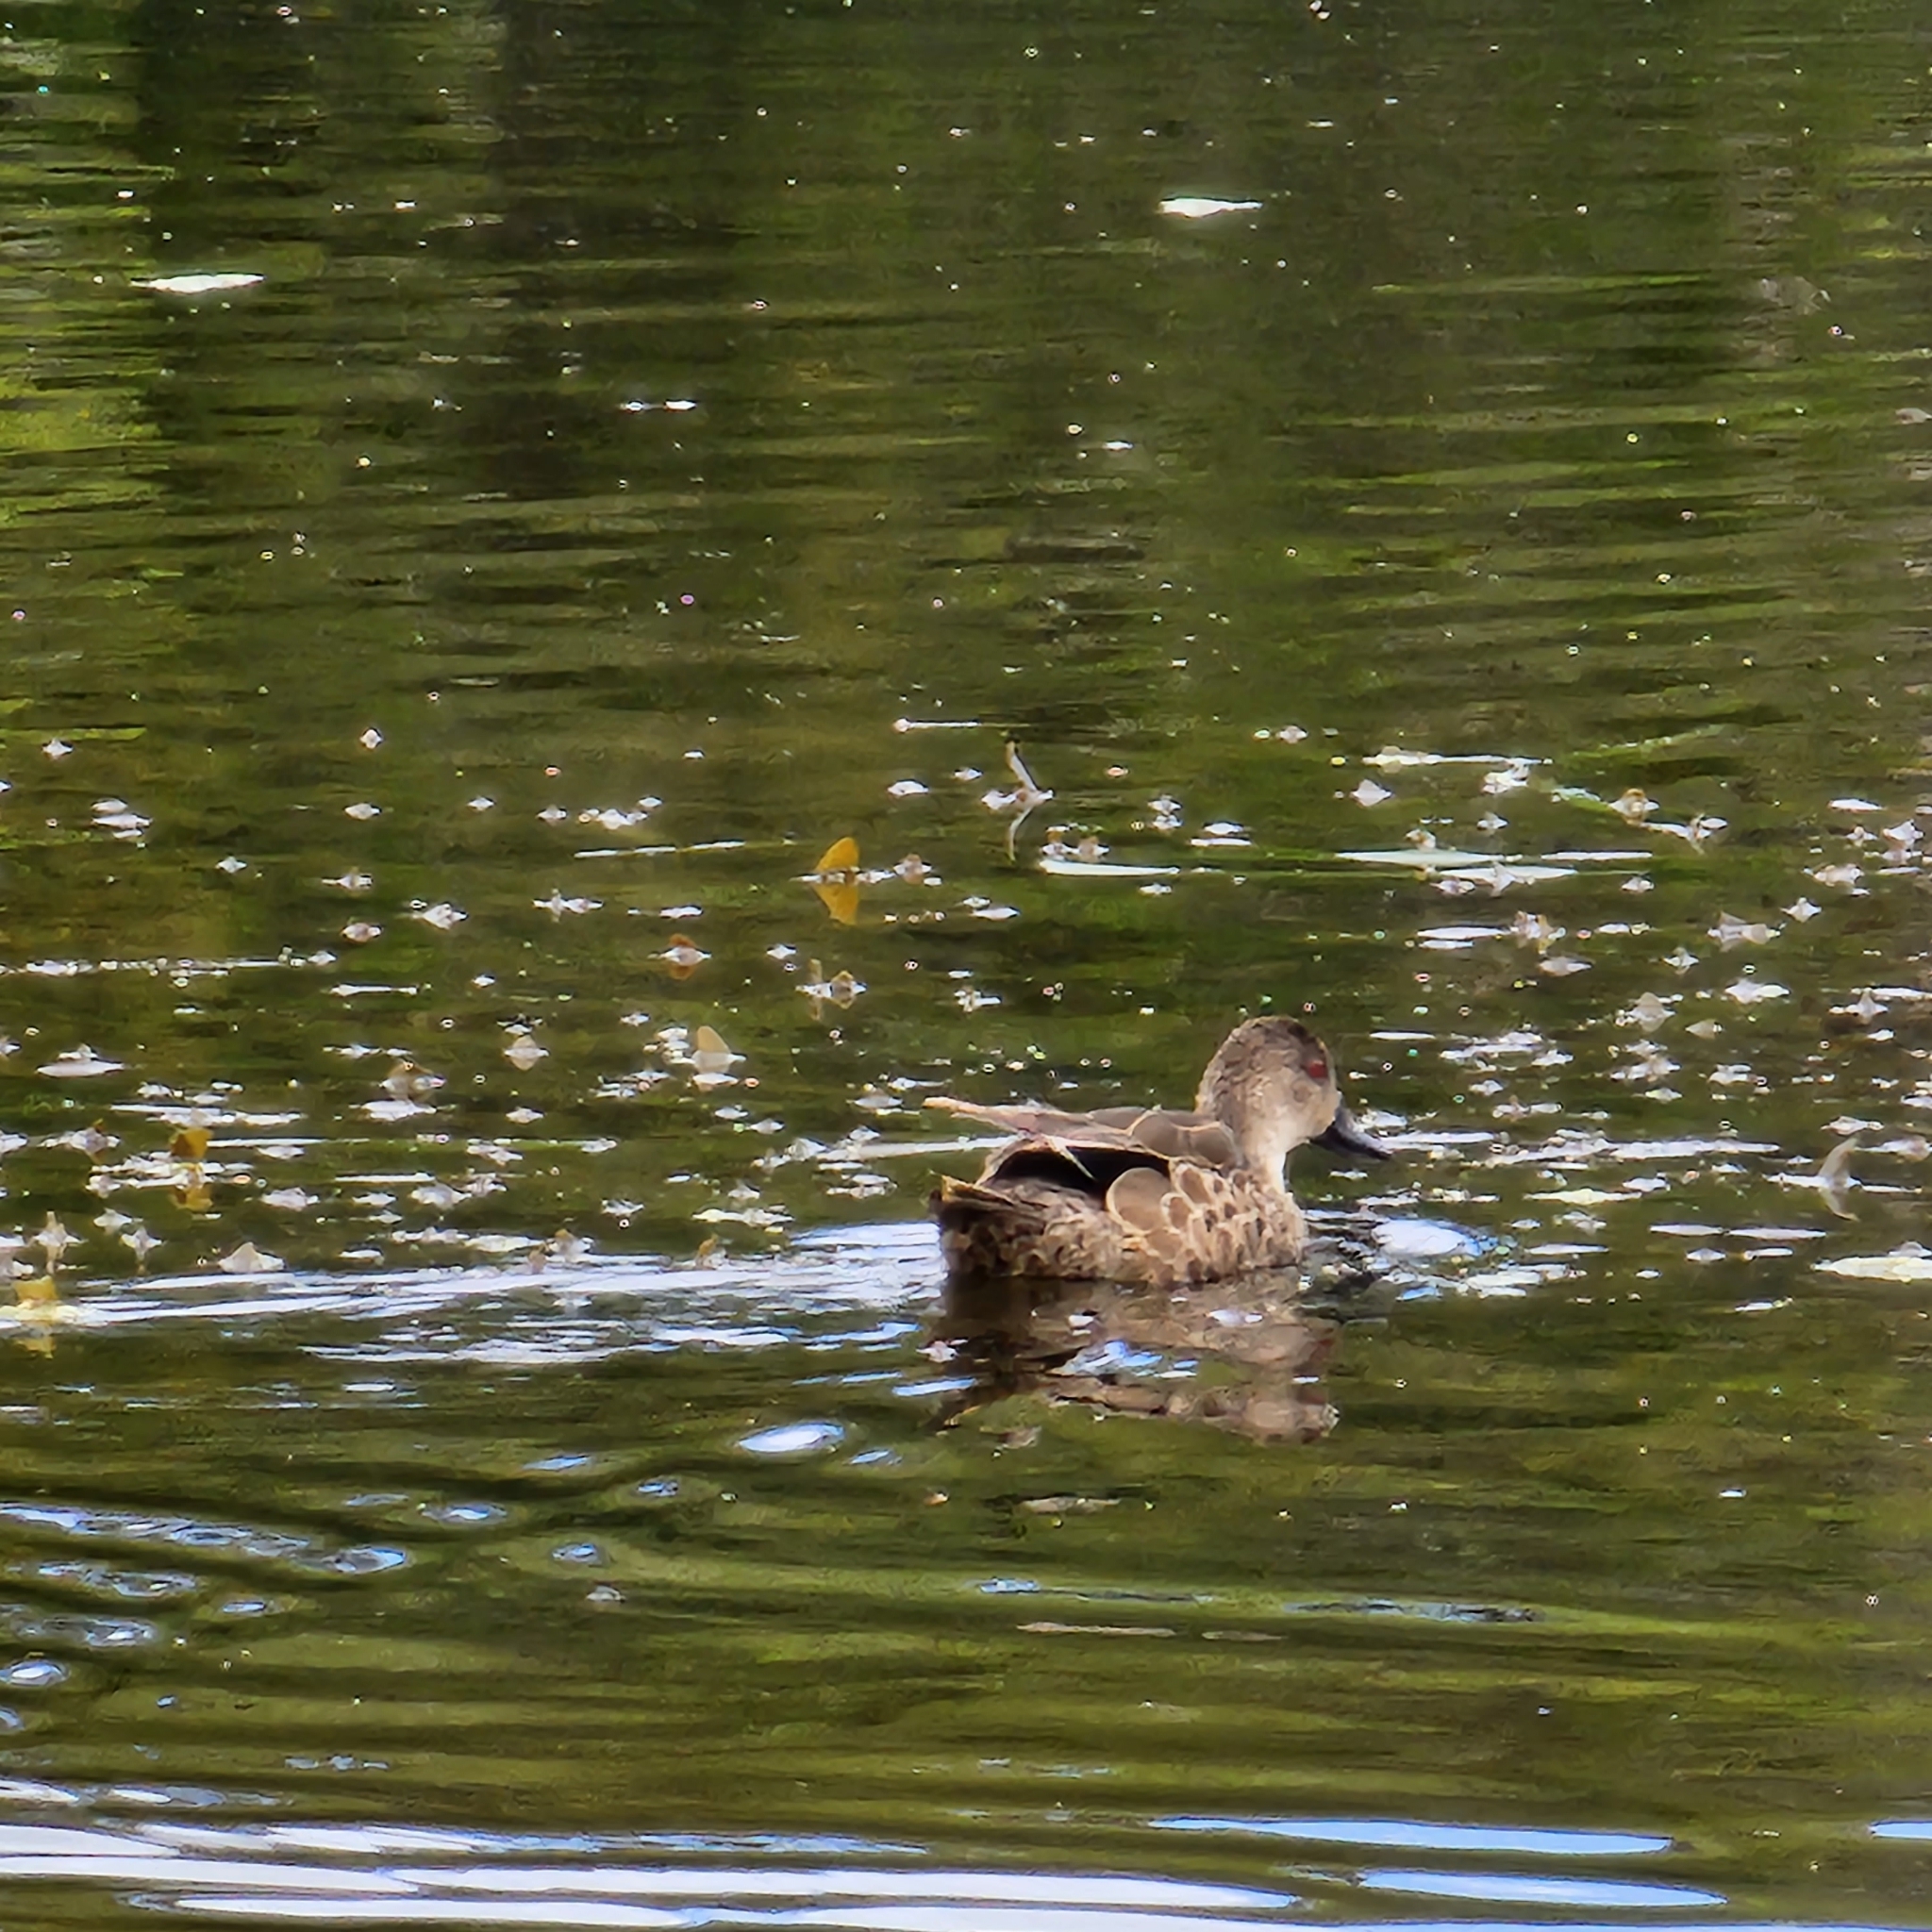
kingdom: Animalia
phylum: Chordata
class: Aves
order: Anseriformes
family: Anatidae
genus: Anas
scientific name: Anas gracilis
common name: Grey teal
